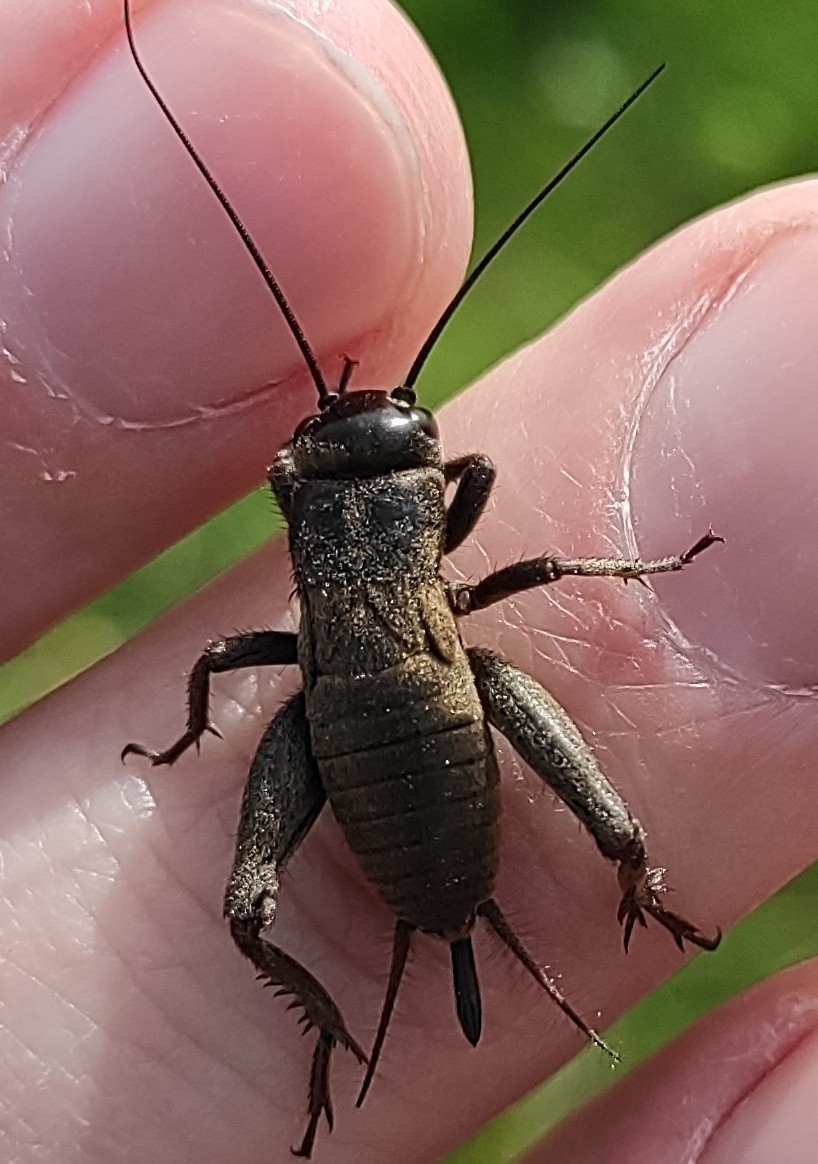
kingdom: Animalia
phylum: Arthropoda
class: Insecta
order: Orthoptera
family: Gryllidae
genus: Melanogryllus
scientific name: Melanogryllus desertus
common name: Desert cricket
